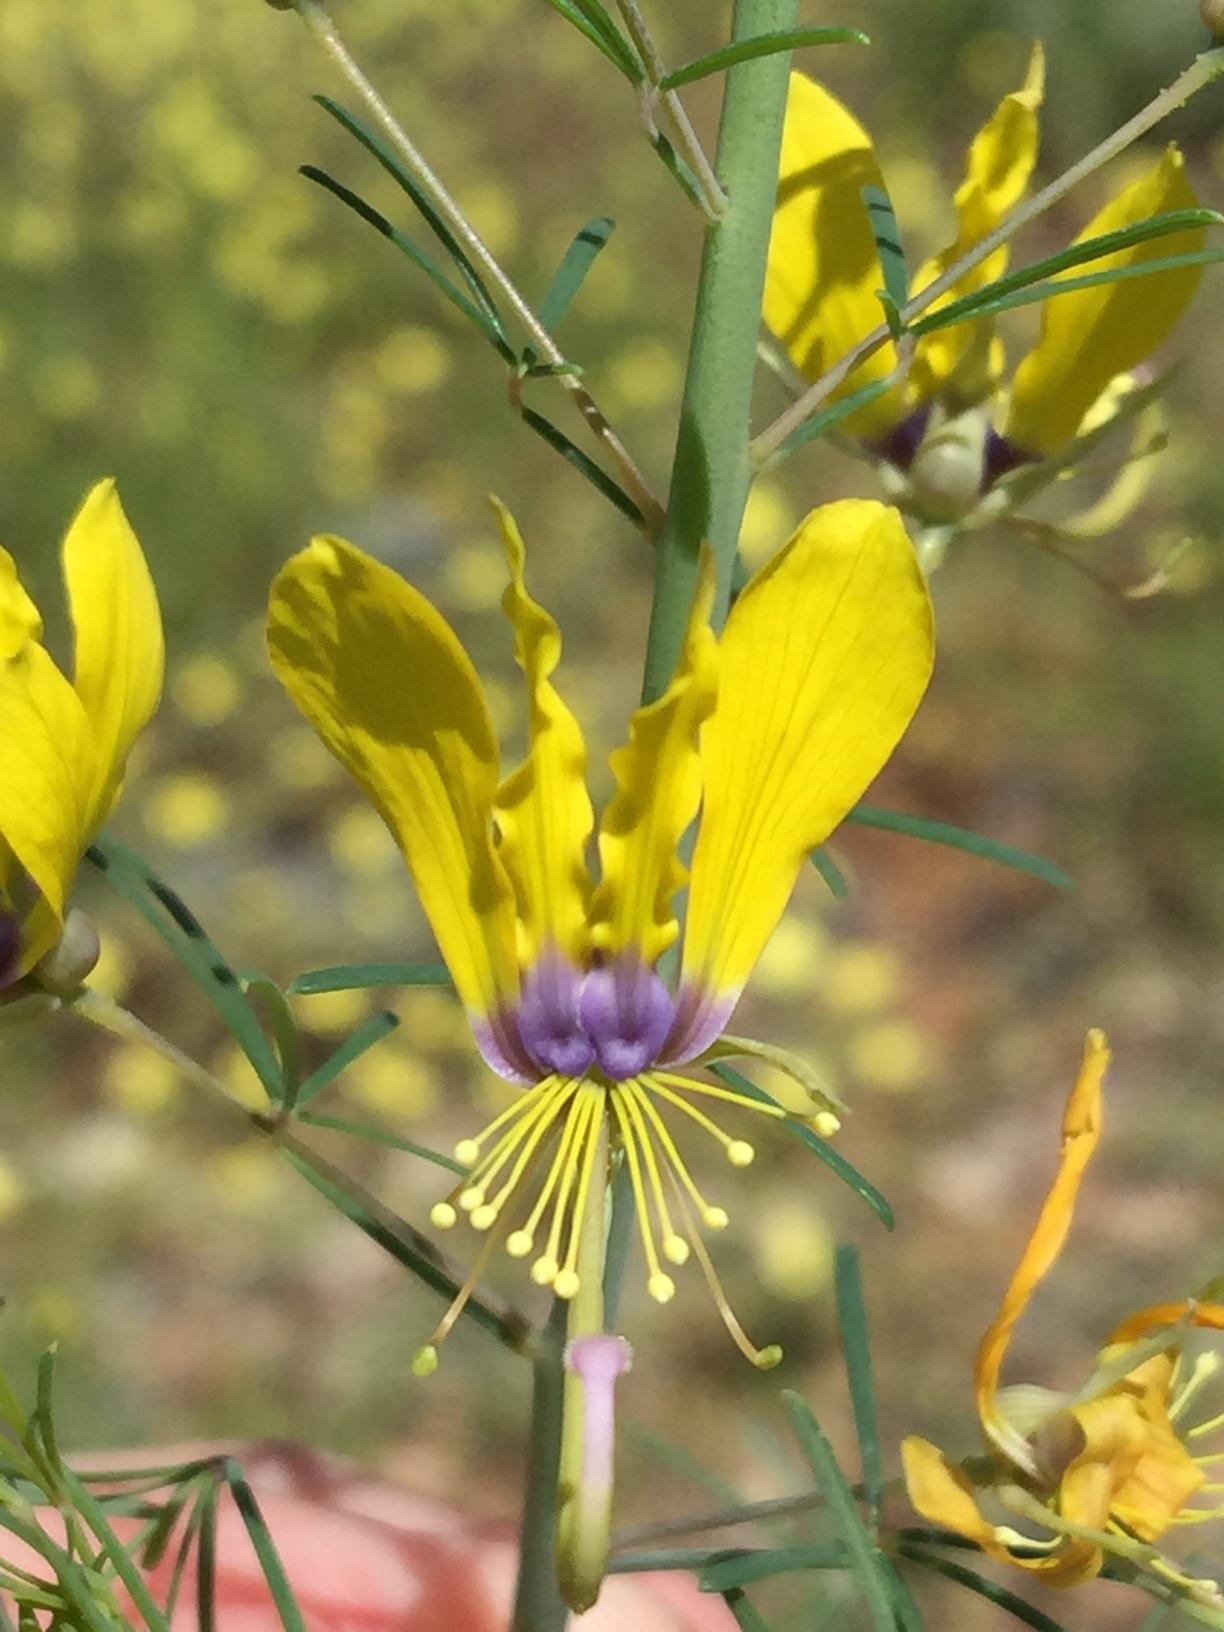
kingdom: Plantae
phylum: Tracheophyta
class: Magnoliopsida
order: Brassicales
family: Cleomaceae
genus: Coalisina
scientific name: Coalisina
